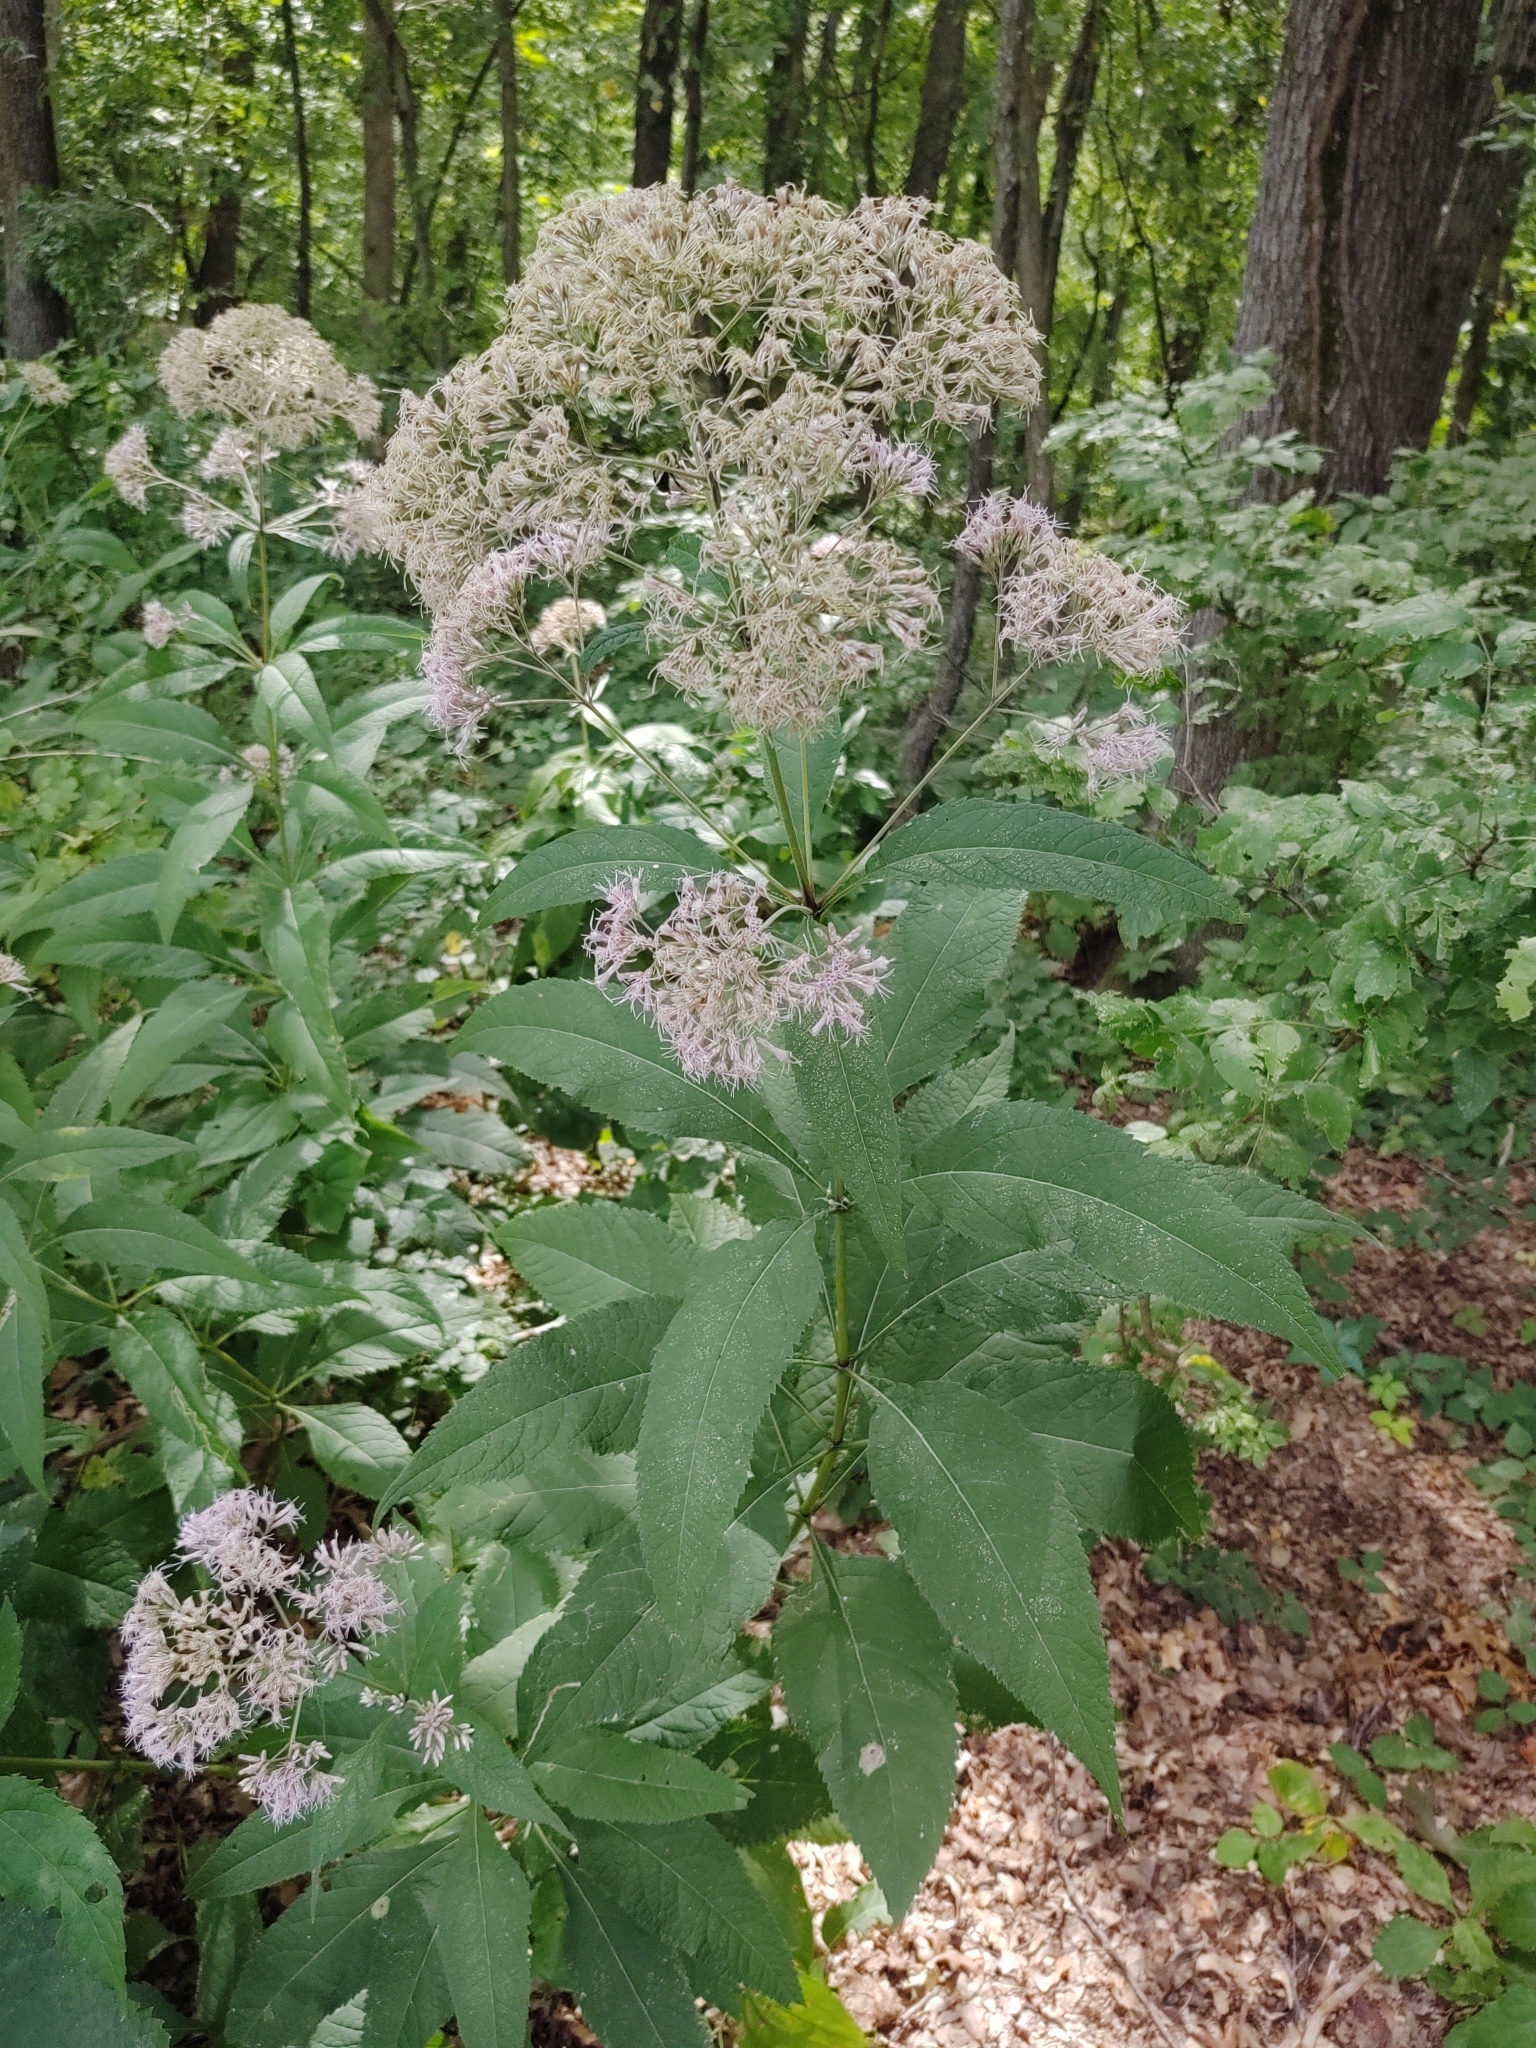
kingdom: Plantae
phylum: Tracheophyta
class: Magnoliopsida
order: Asterales
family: Asteraceae
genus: Eutrochium
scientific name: Eutrochium purpureum
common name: Gravelroot
